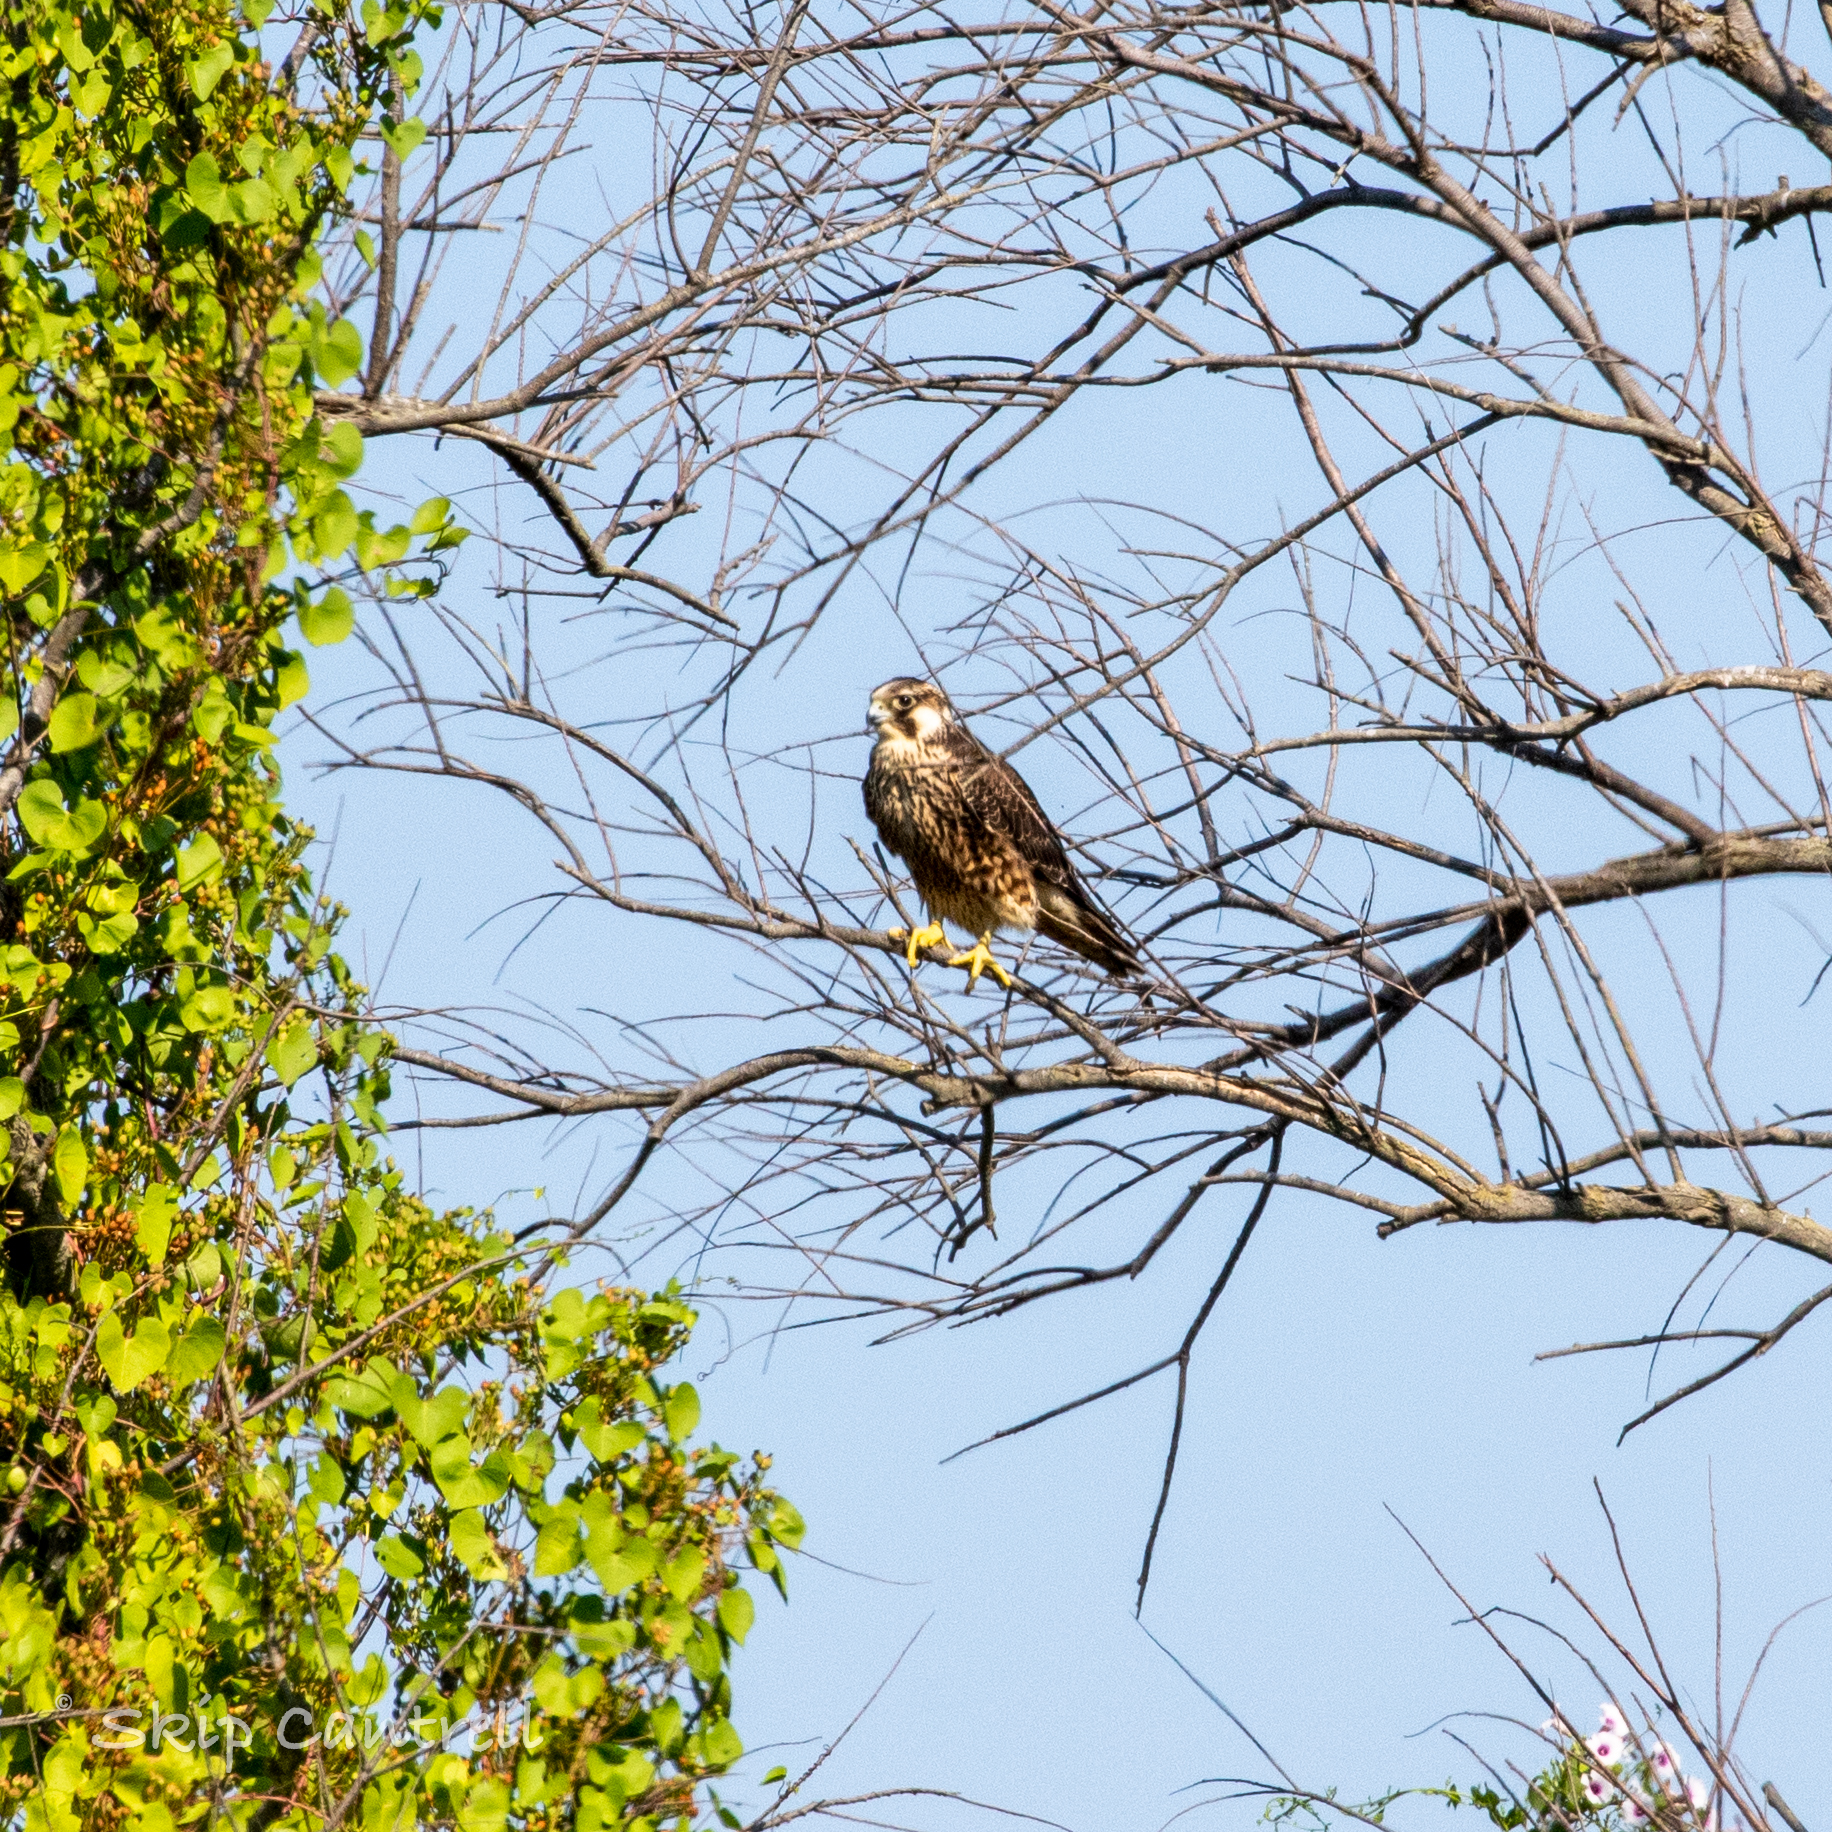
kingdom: Animalia
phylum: Chordata
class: Aves
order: Falconiformes
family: Falconidae
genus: Falco
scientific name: Falco peregrinus
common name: Peregrine falcon
